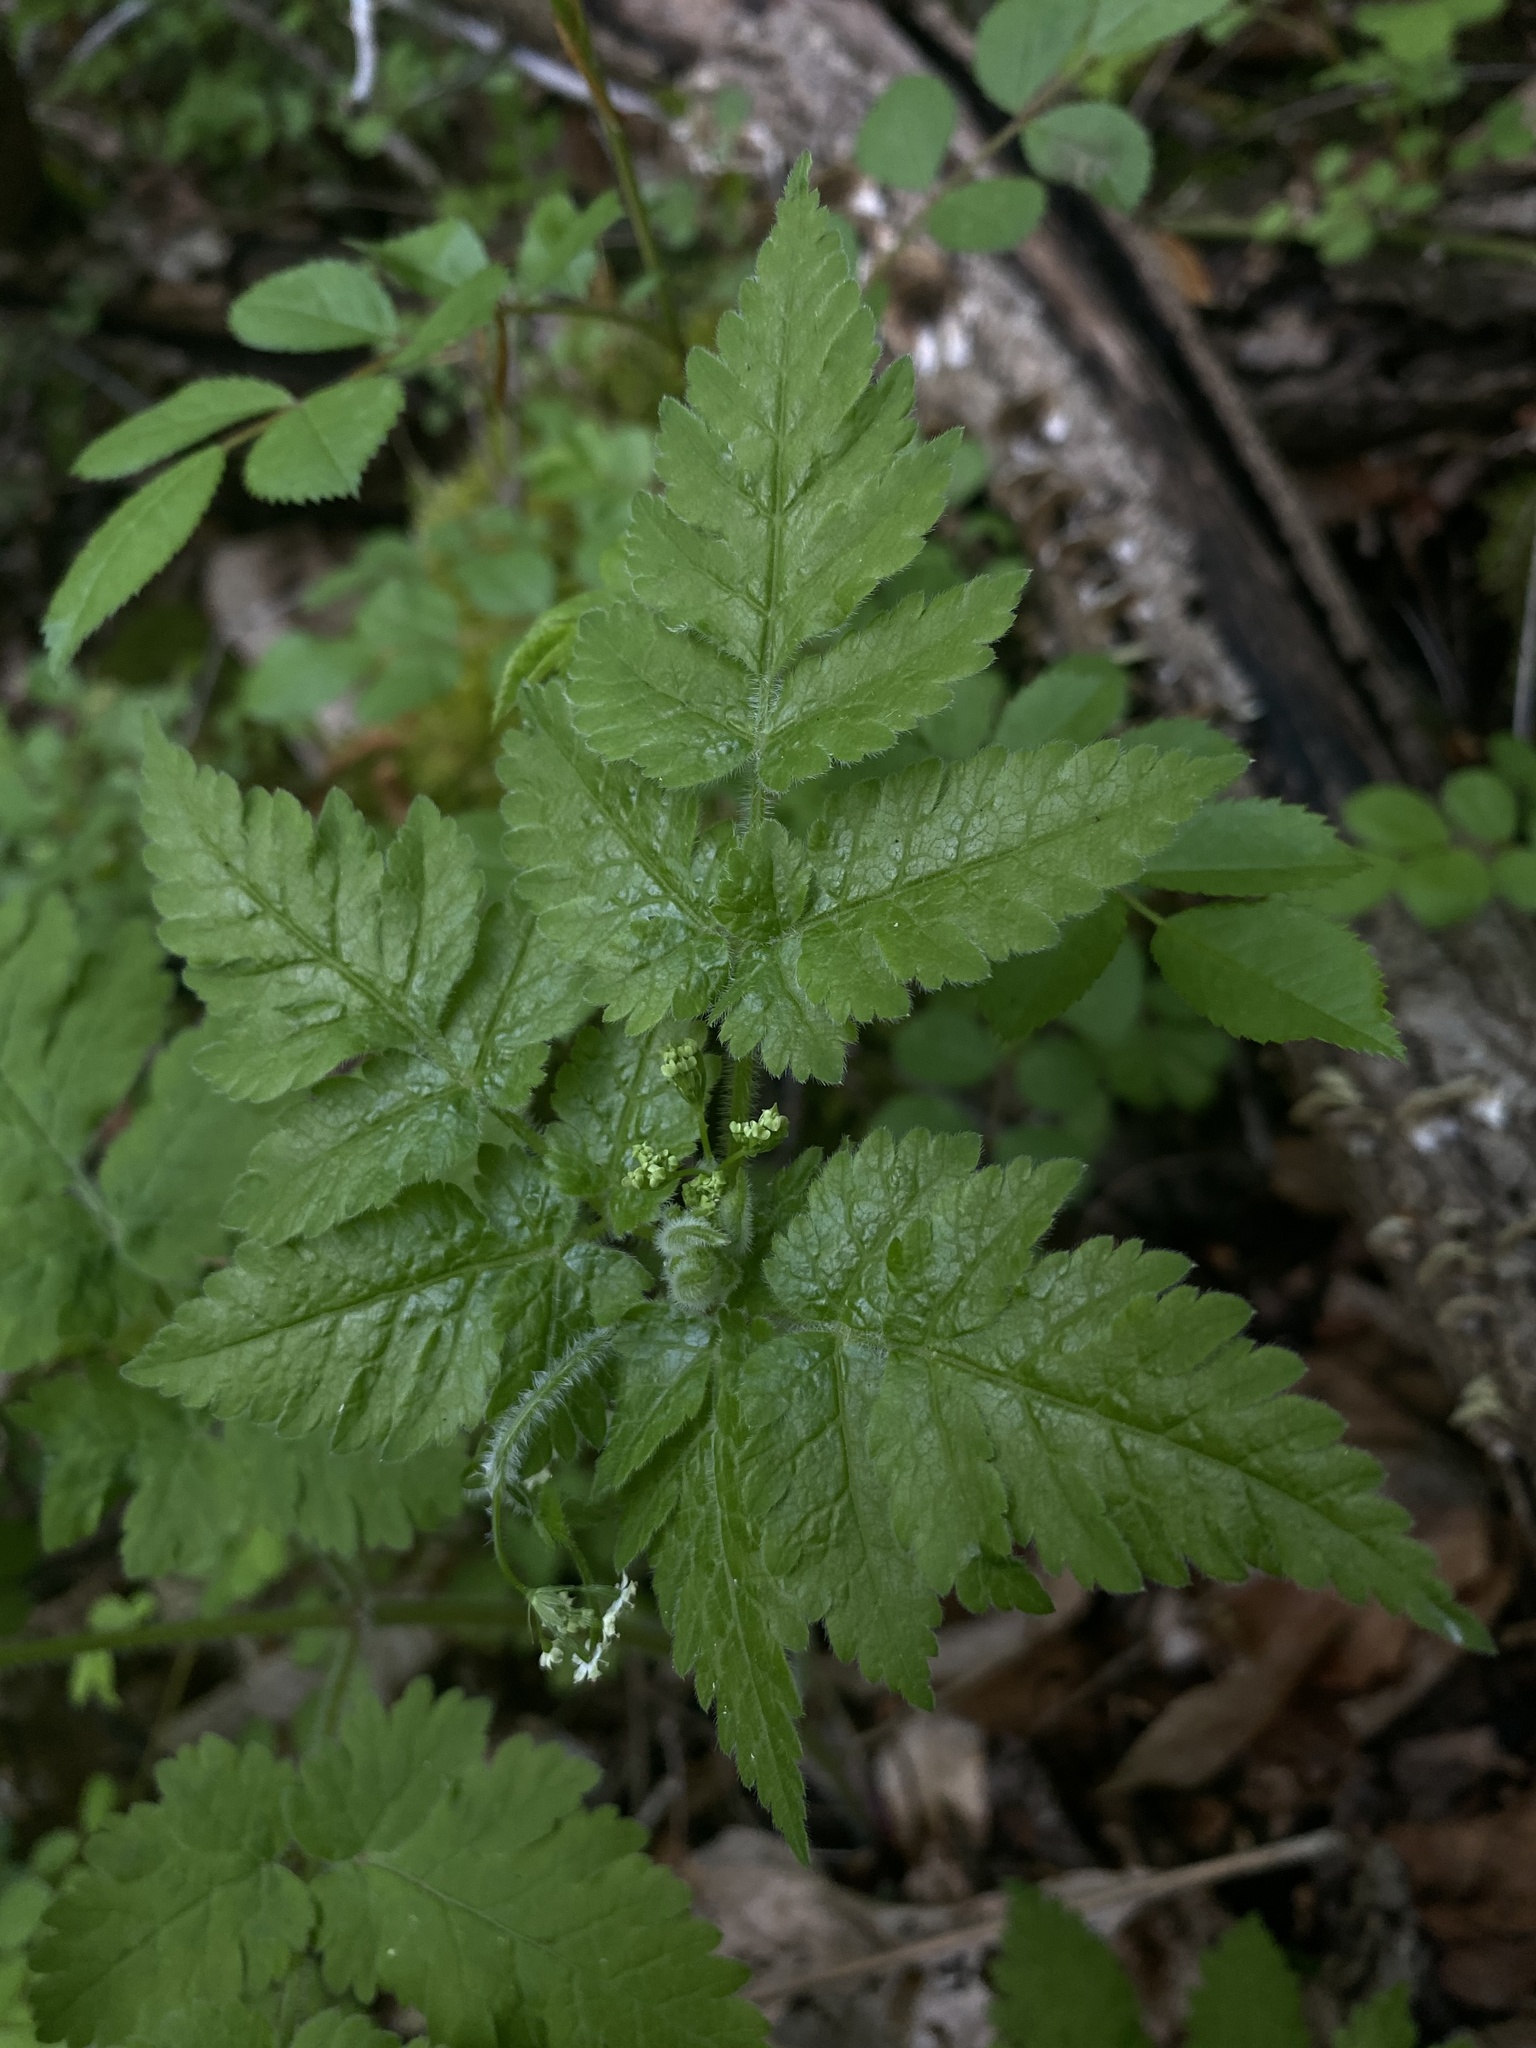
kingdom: Plantae
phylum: Tracheophyta
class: Magnoliopsida
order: Apiales
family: Apiaceae
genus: Osmorhiza
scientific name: Osmorhiza claytonii
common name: Hairy sweet cicely
